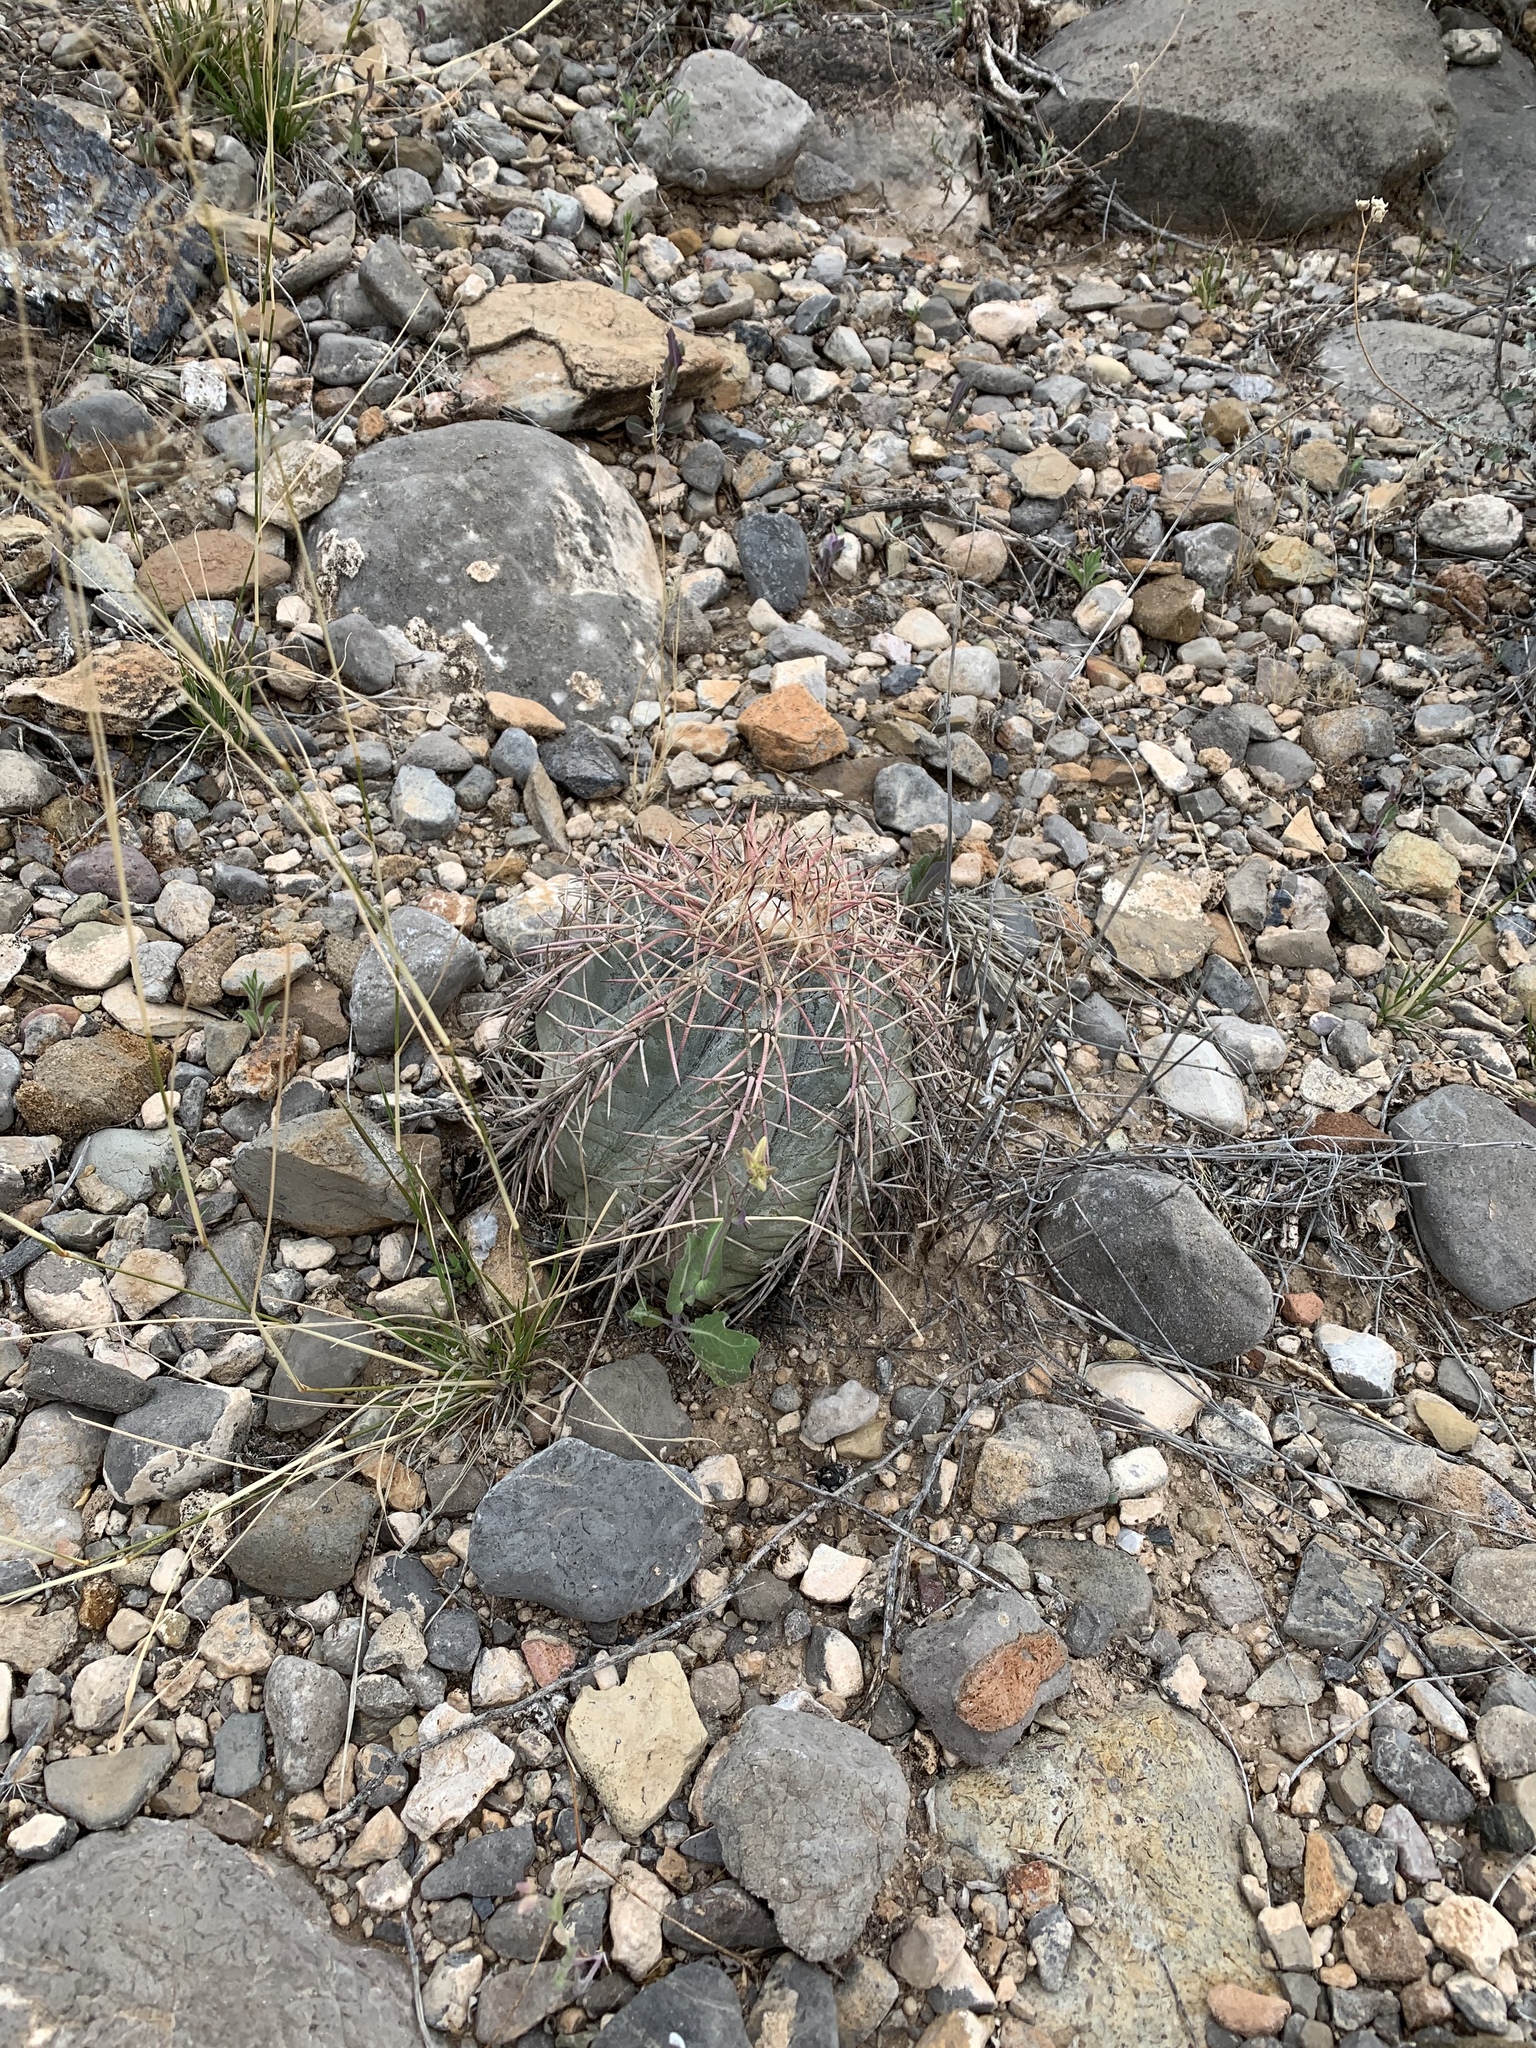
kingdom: Plantae
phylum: Tracheophyta
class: Magnoliopsida
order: Caryophyllales
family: Cactaceae
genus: Echinocactus
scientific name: Echinocactus horizonthalonius
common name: Devilshead
